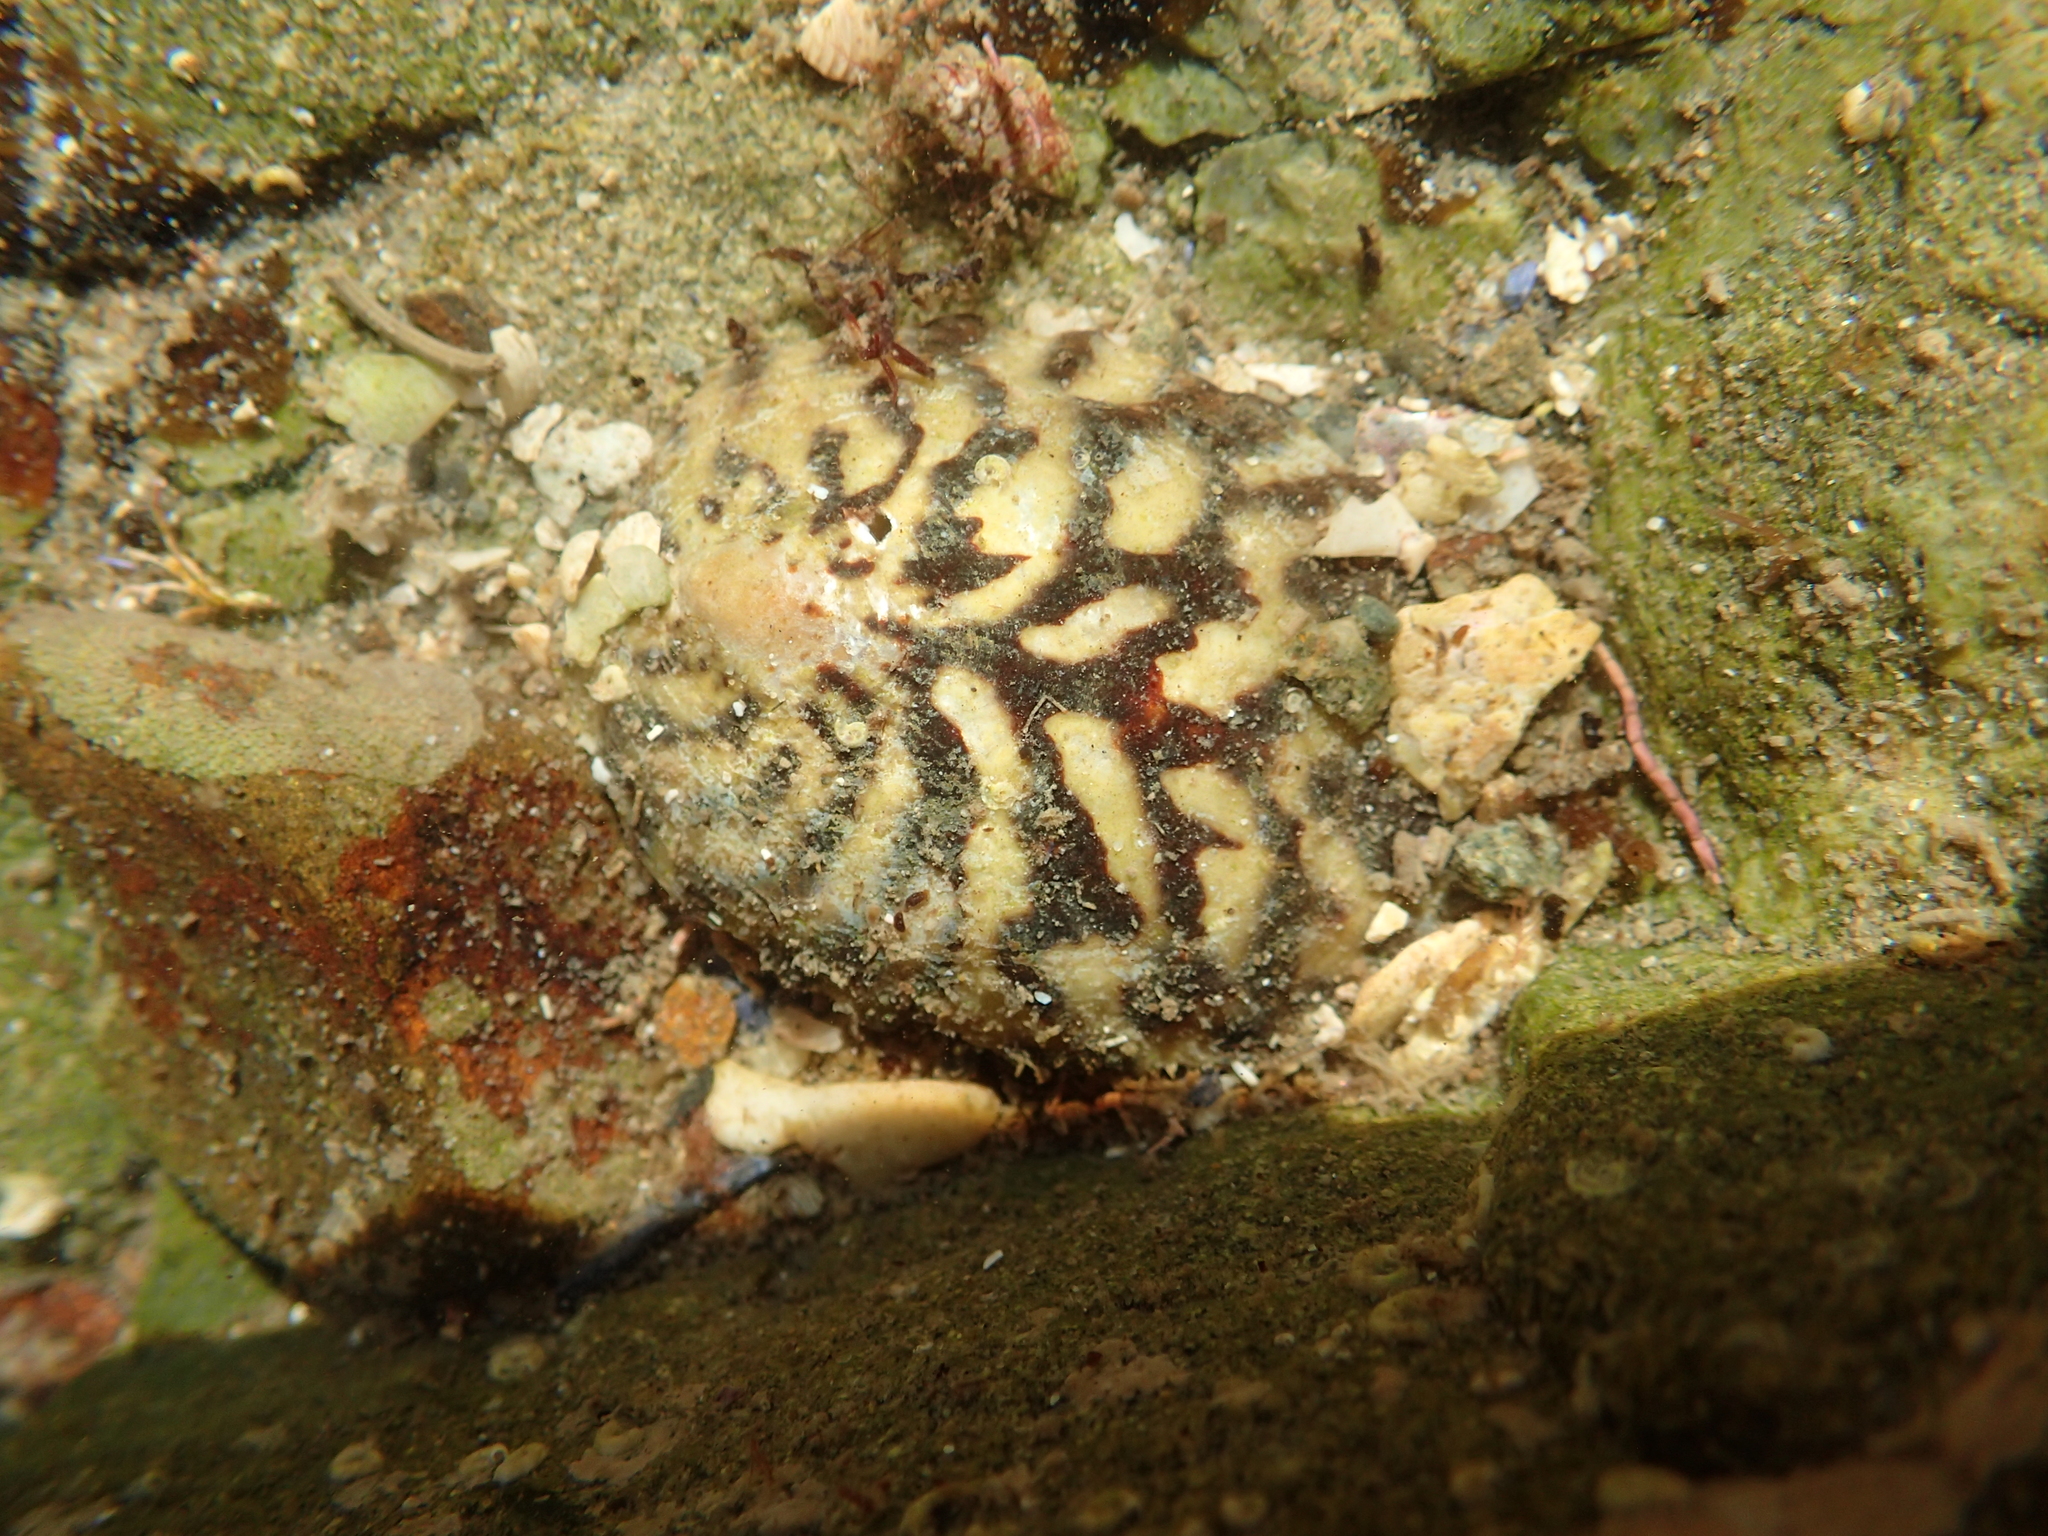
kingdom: Animalia
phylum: Mollusca
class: Gastropoda
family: Nacellidae
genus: Cellana
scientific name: Cellana radians
